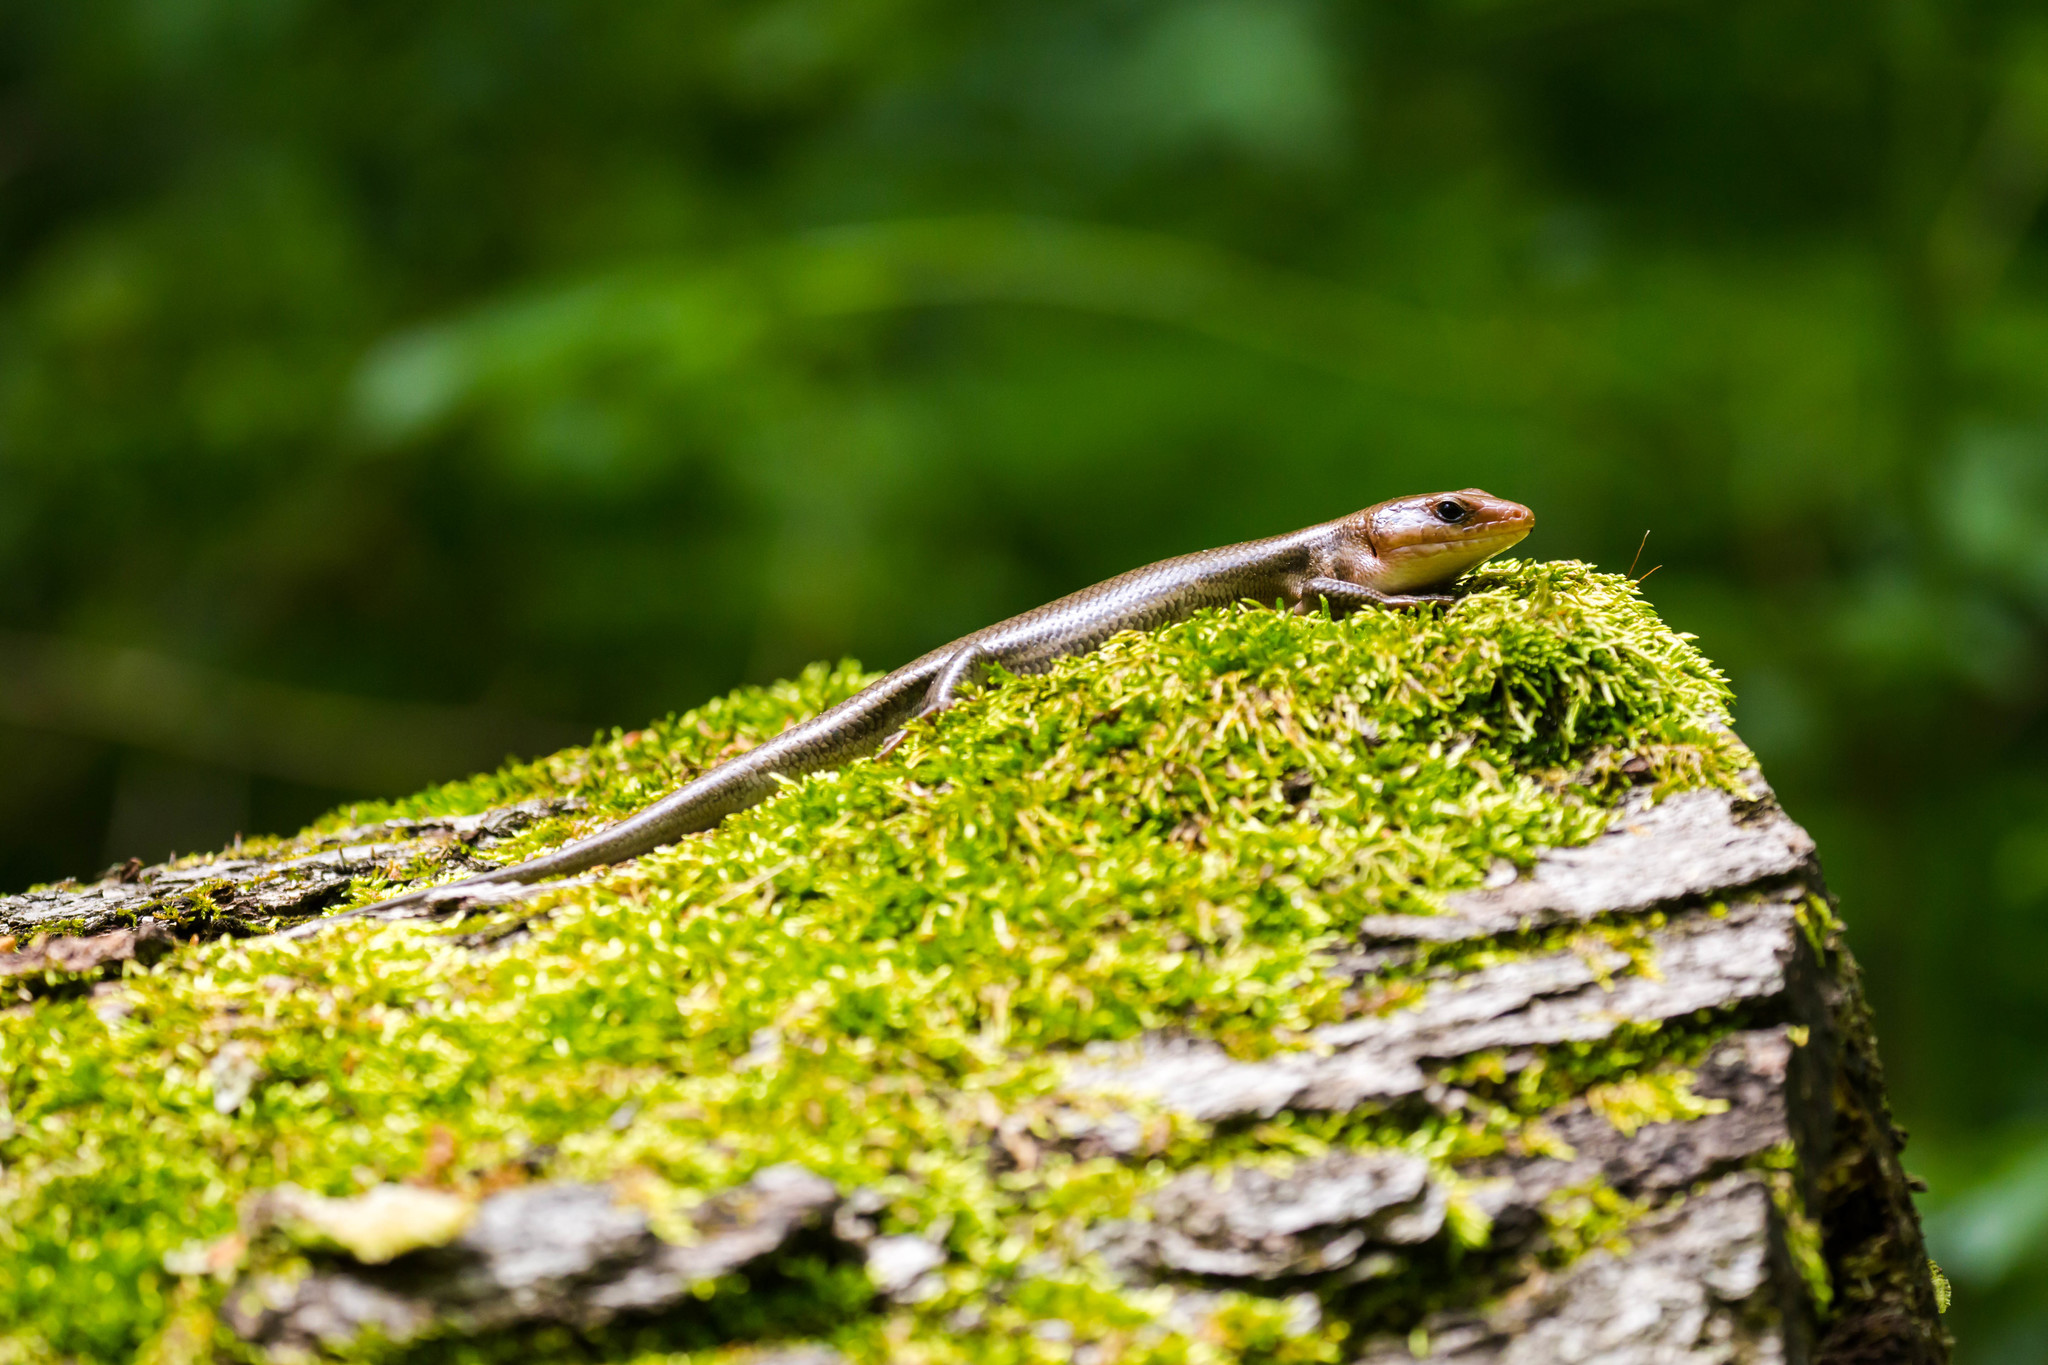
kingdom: Animalia
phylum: Chordata
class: Squamata
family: Scincidae
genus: Plestiodon
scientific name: Plestiodon laticeps
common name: Broadhead skink
